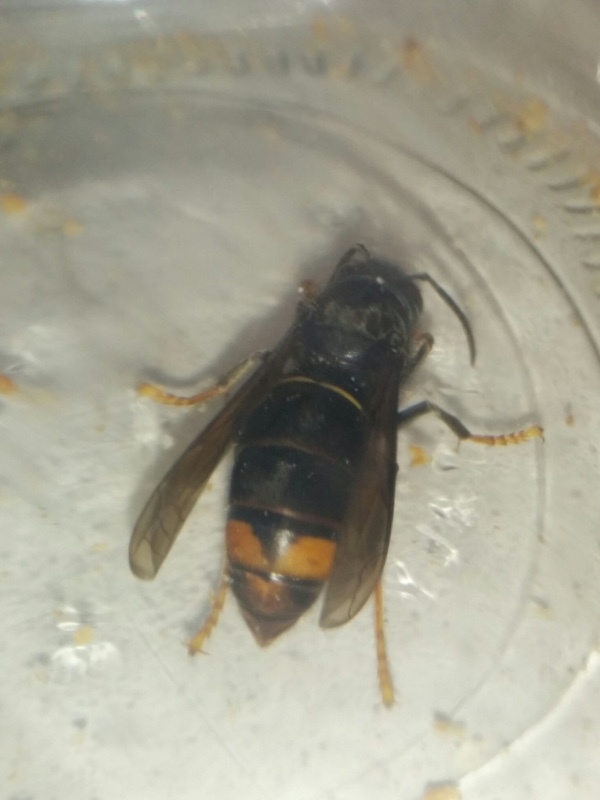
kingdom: Animalia
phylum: Arthropoda
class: Insecta
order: Hymenoptera
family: Vespidae
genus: Vespa
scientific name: Vespa velutina
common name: Asian hornet
